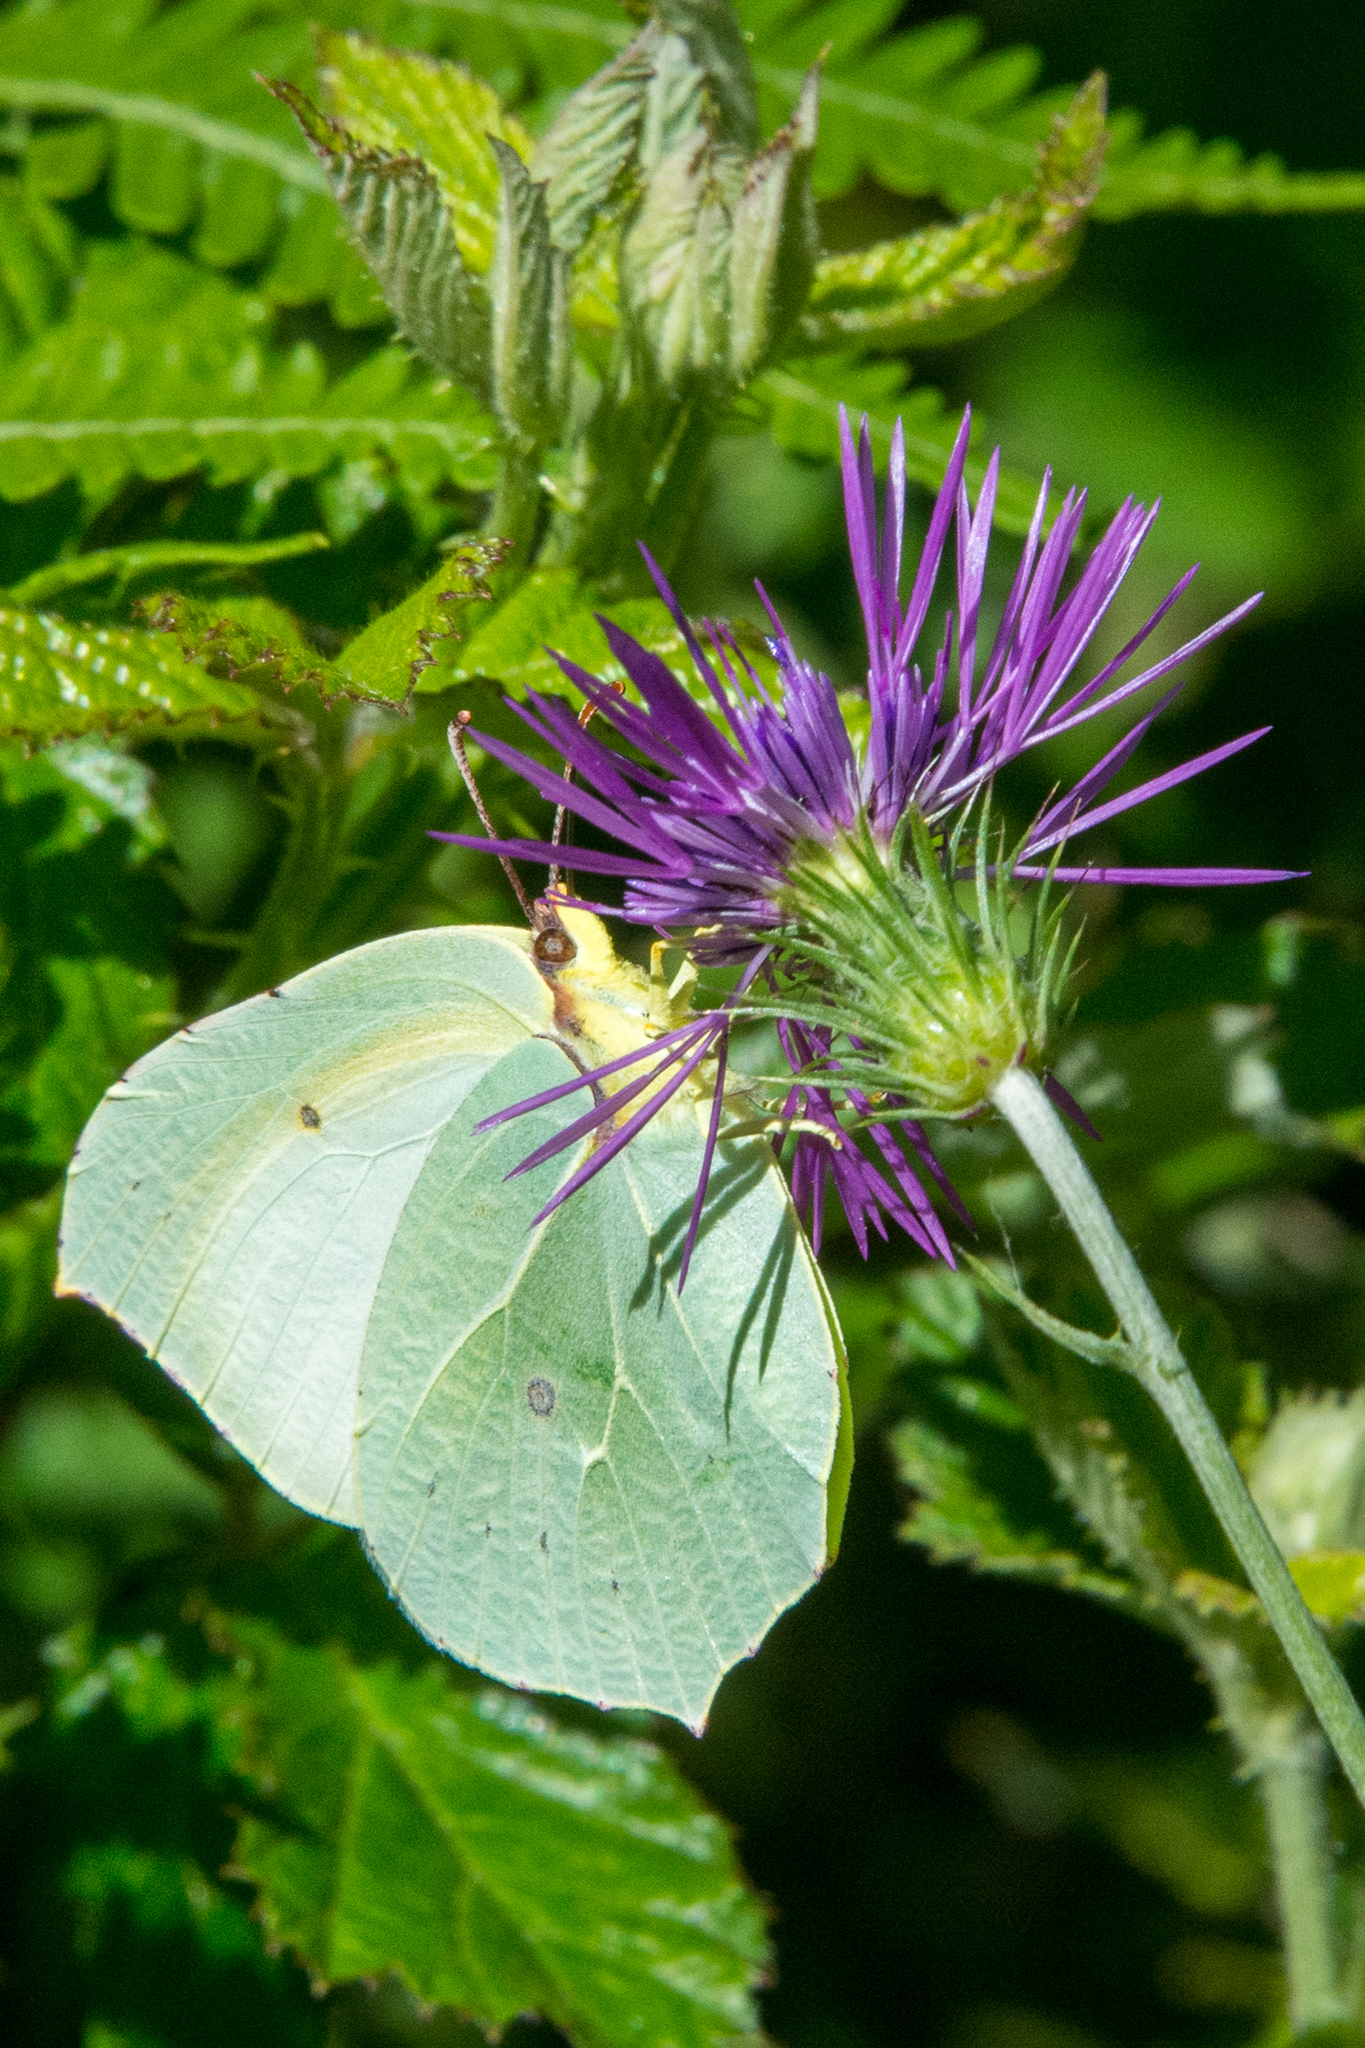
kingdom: Animalia
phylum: Arthropoda
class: Insecta
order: Lepidoptera
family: Pieridae
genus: Gonepteryx
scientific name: Gonepteryx cleopatra
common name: Cleopatra
